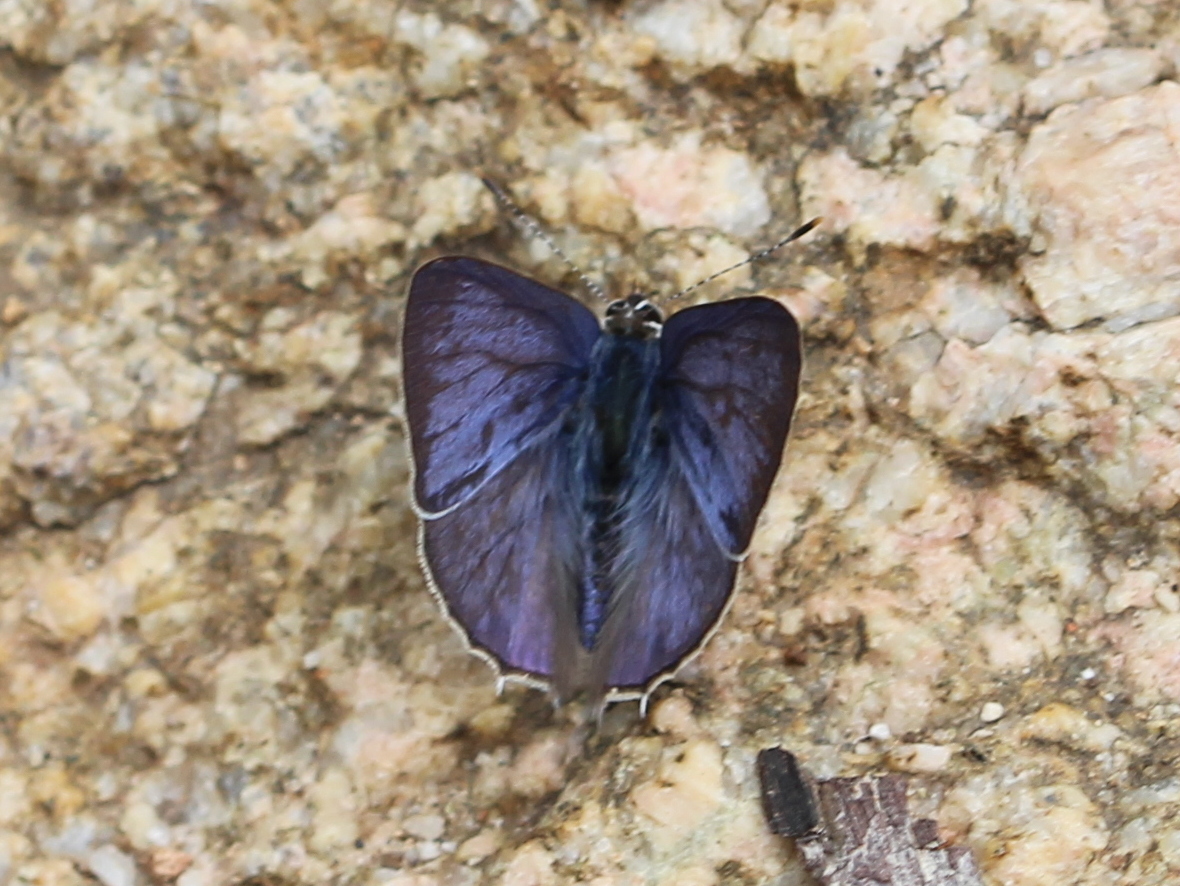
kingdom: Animalia
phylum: Arthropoda
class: Insecta
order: Lepidoptera
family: Lycaenidae
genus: Anthene
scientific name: Anthene lycaenina
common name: Pointed ciliate blue
